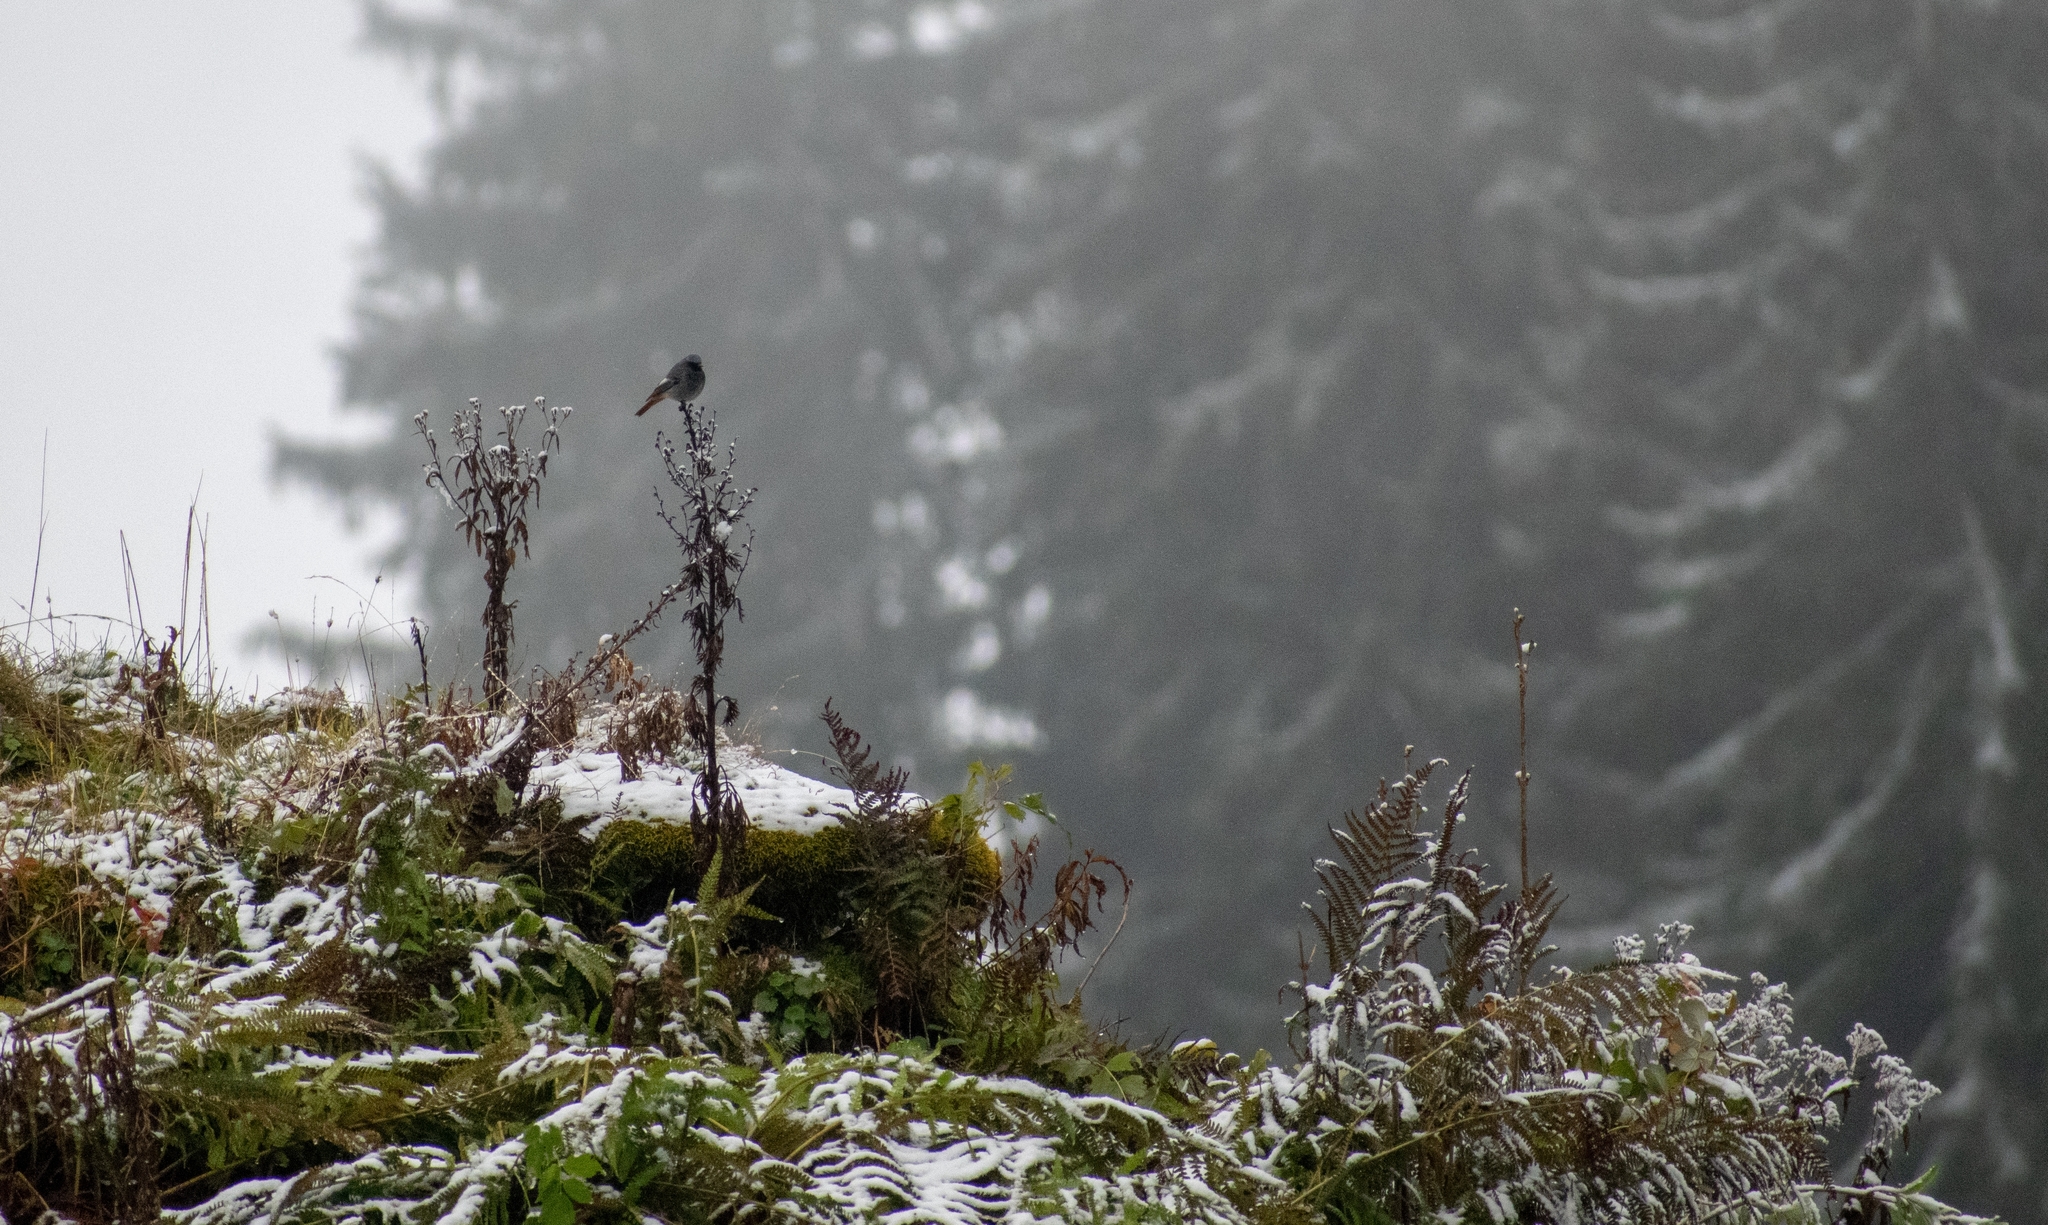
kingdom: Animalia
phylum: Chordata
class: Aves
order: Passeriformes
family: Muscicapidae
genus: Phoenicurus
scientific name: Phoenicurus ochruros
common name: Black redstart
